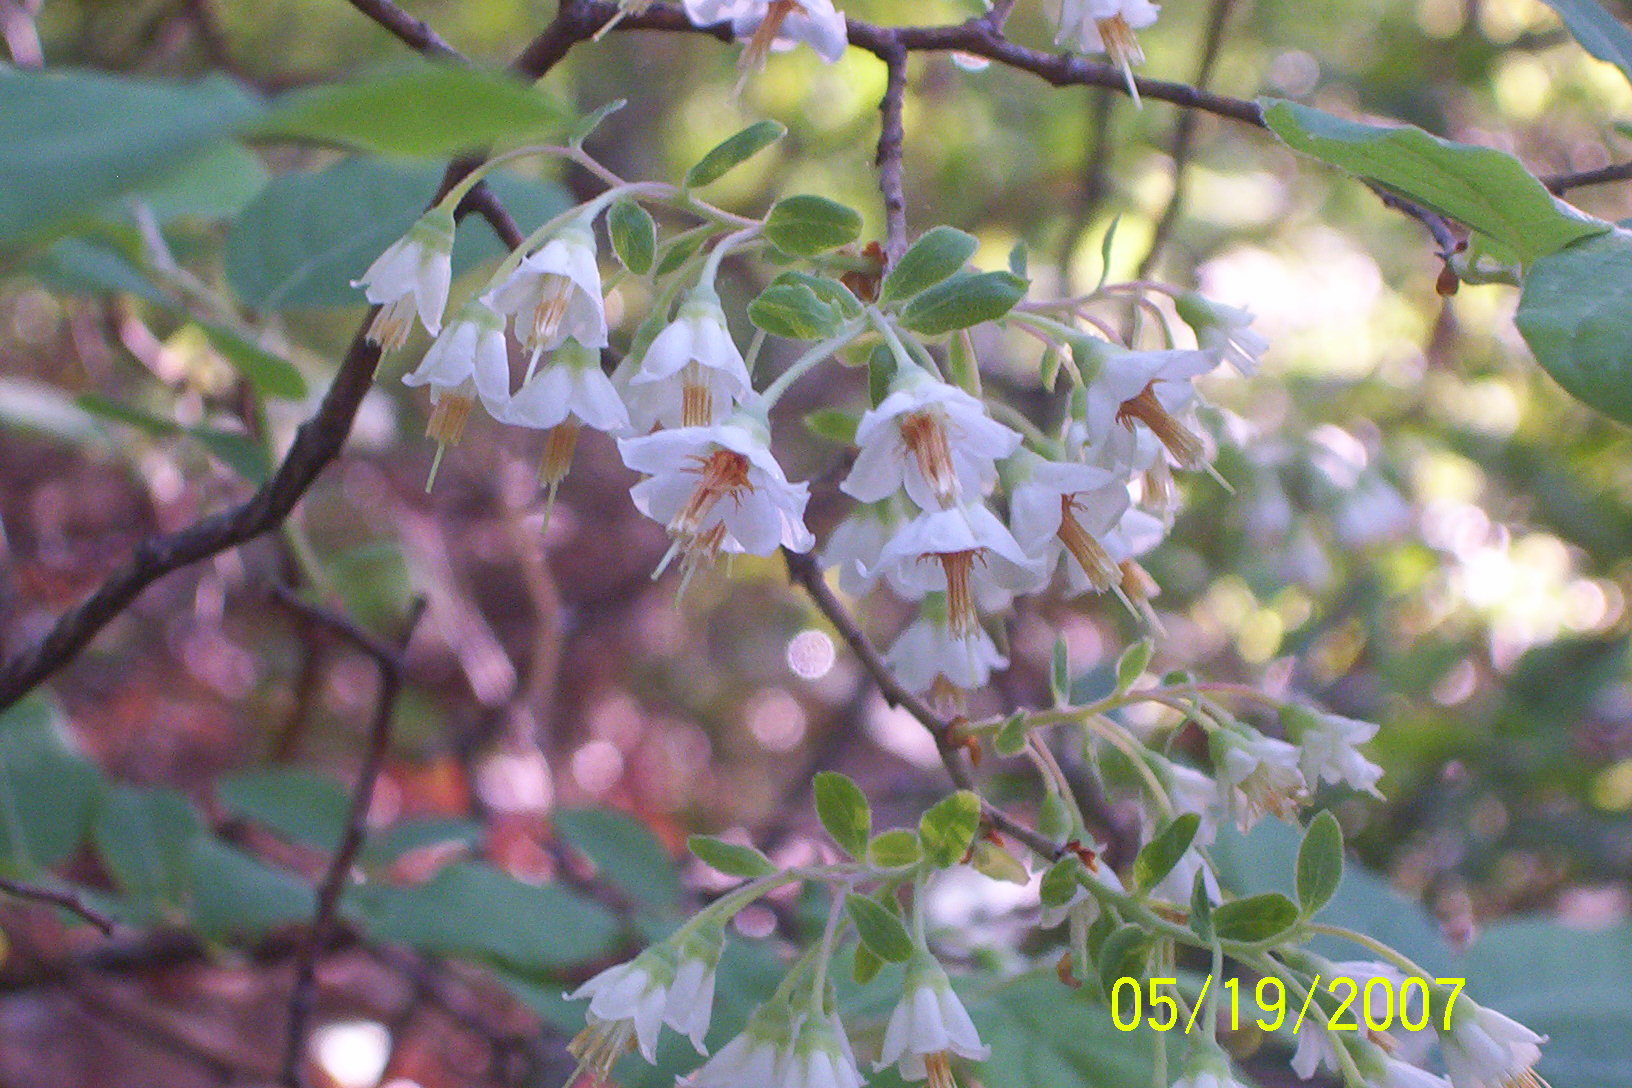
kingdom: Plantae
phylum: Tracheophyta
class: Magnoliopsida
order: Ericales
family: Ericaceae
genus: Vaccinium
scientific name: Vaccinium stamineum
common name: Deerberry
